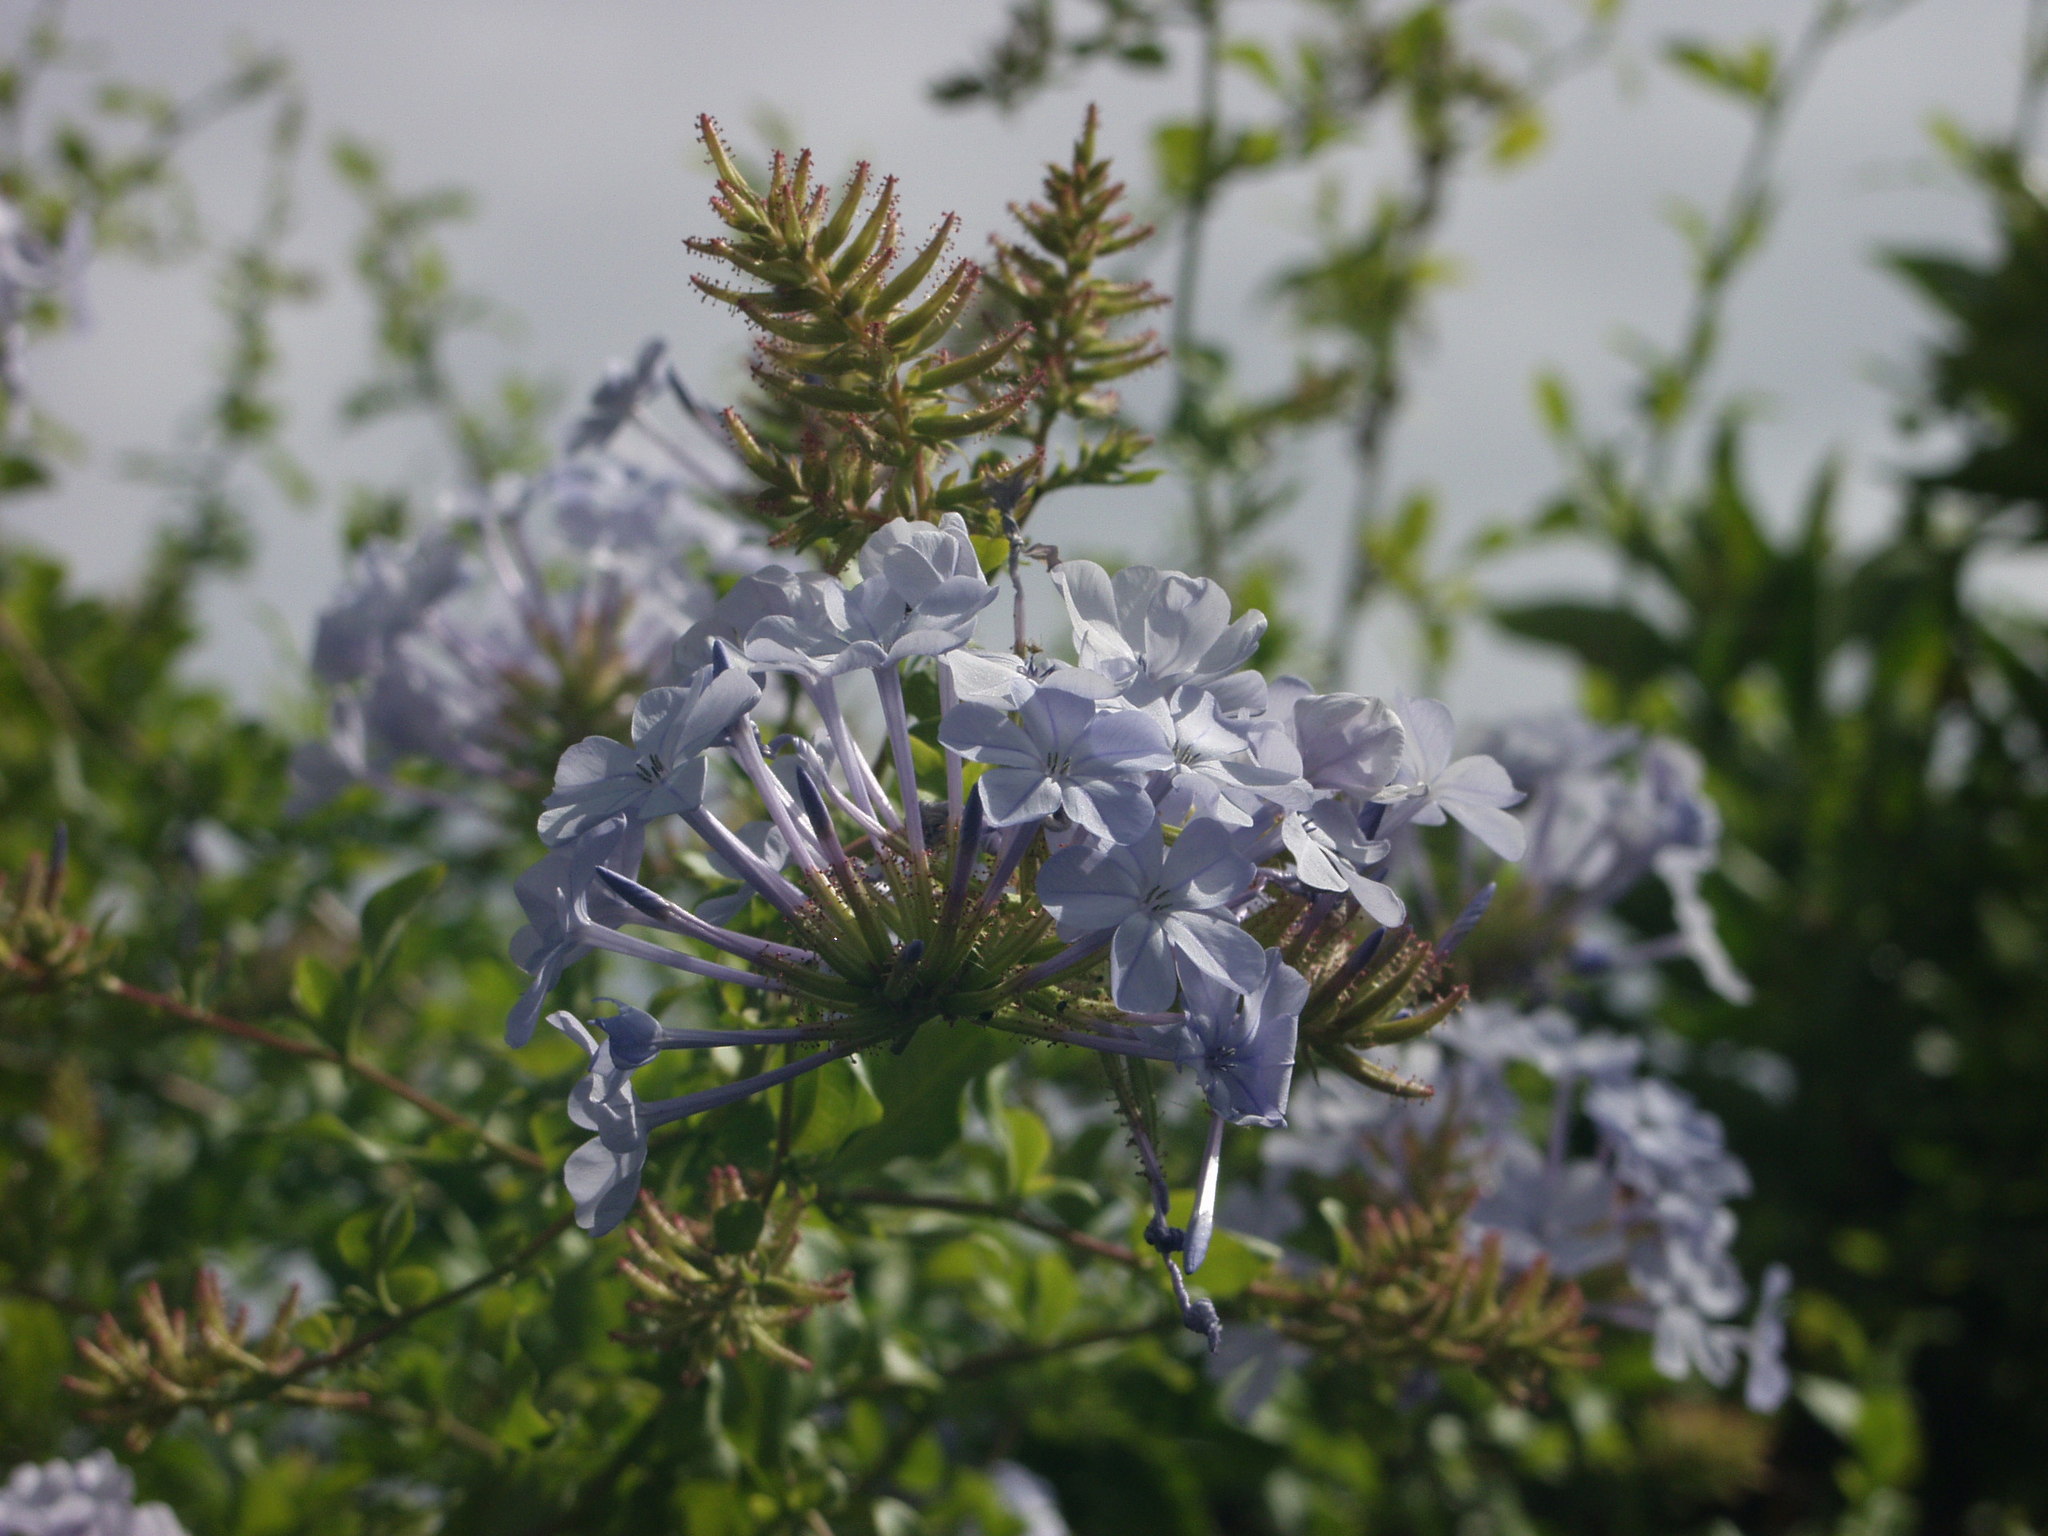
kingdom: Plantae
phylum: Tracheophyta
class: Magnoliopsida
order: Caryophyllales
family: Plumbaginaceae
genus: Plumbago
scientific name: Plumbago auriculata
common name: Cape leadwort
